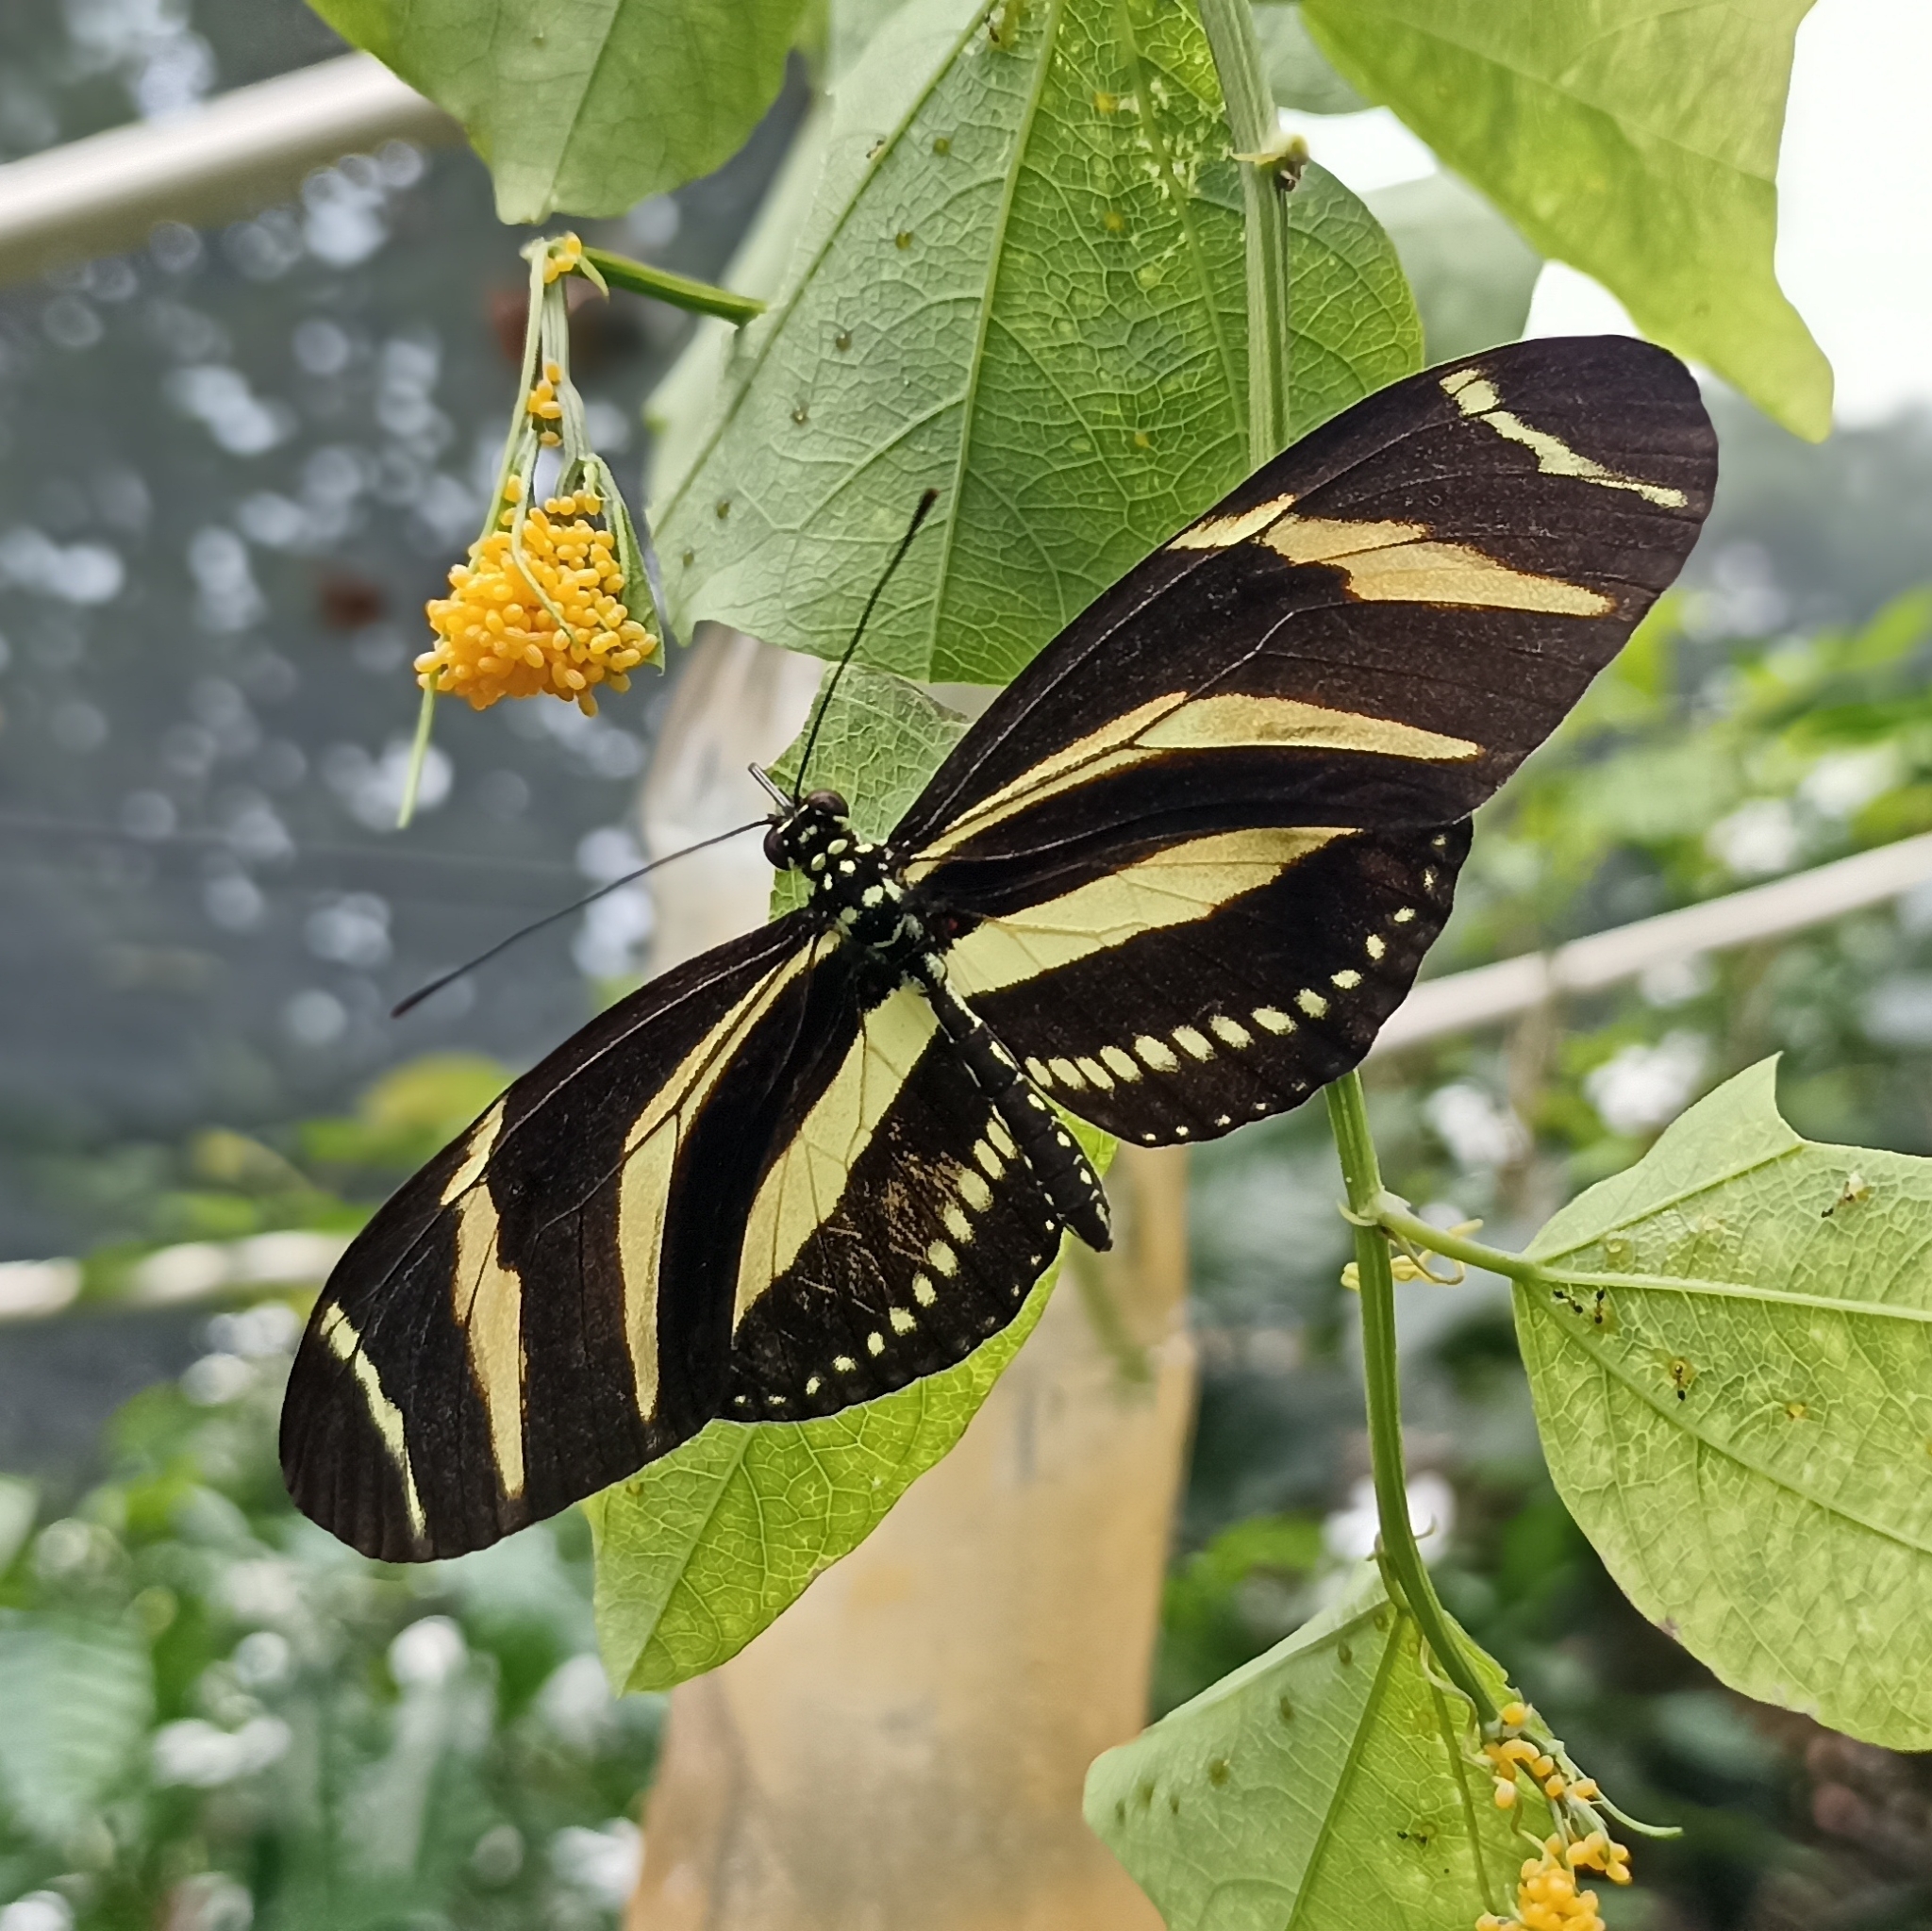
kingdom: Animalia
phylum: Arthropoda
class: Insecta
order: Lepidoptera
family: Nymphalidae
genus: Heliconius
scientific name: Heliconius charithonia
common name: Zebra long wing
